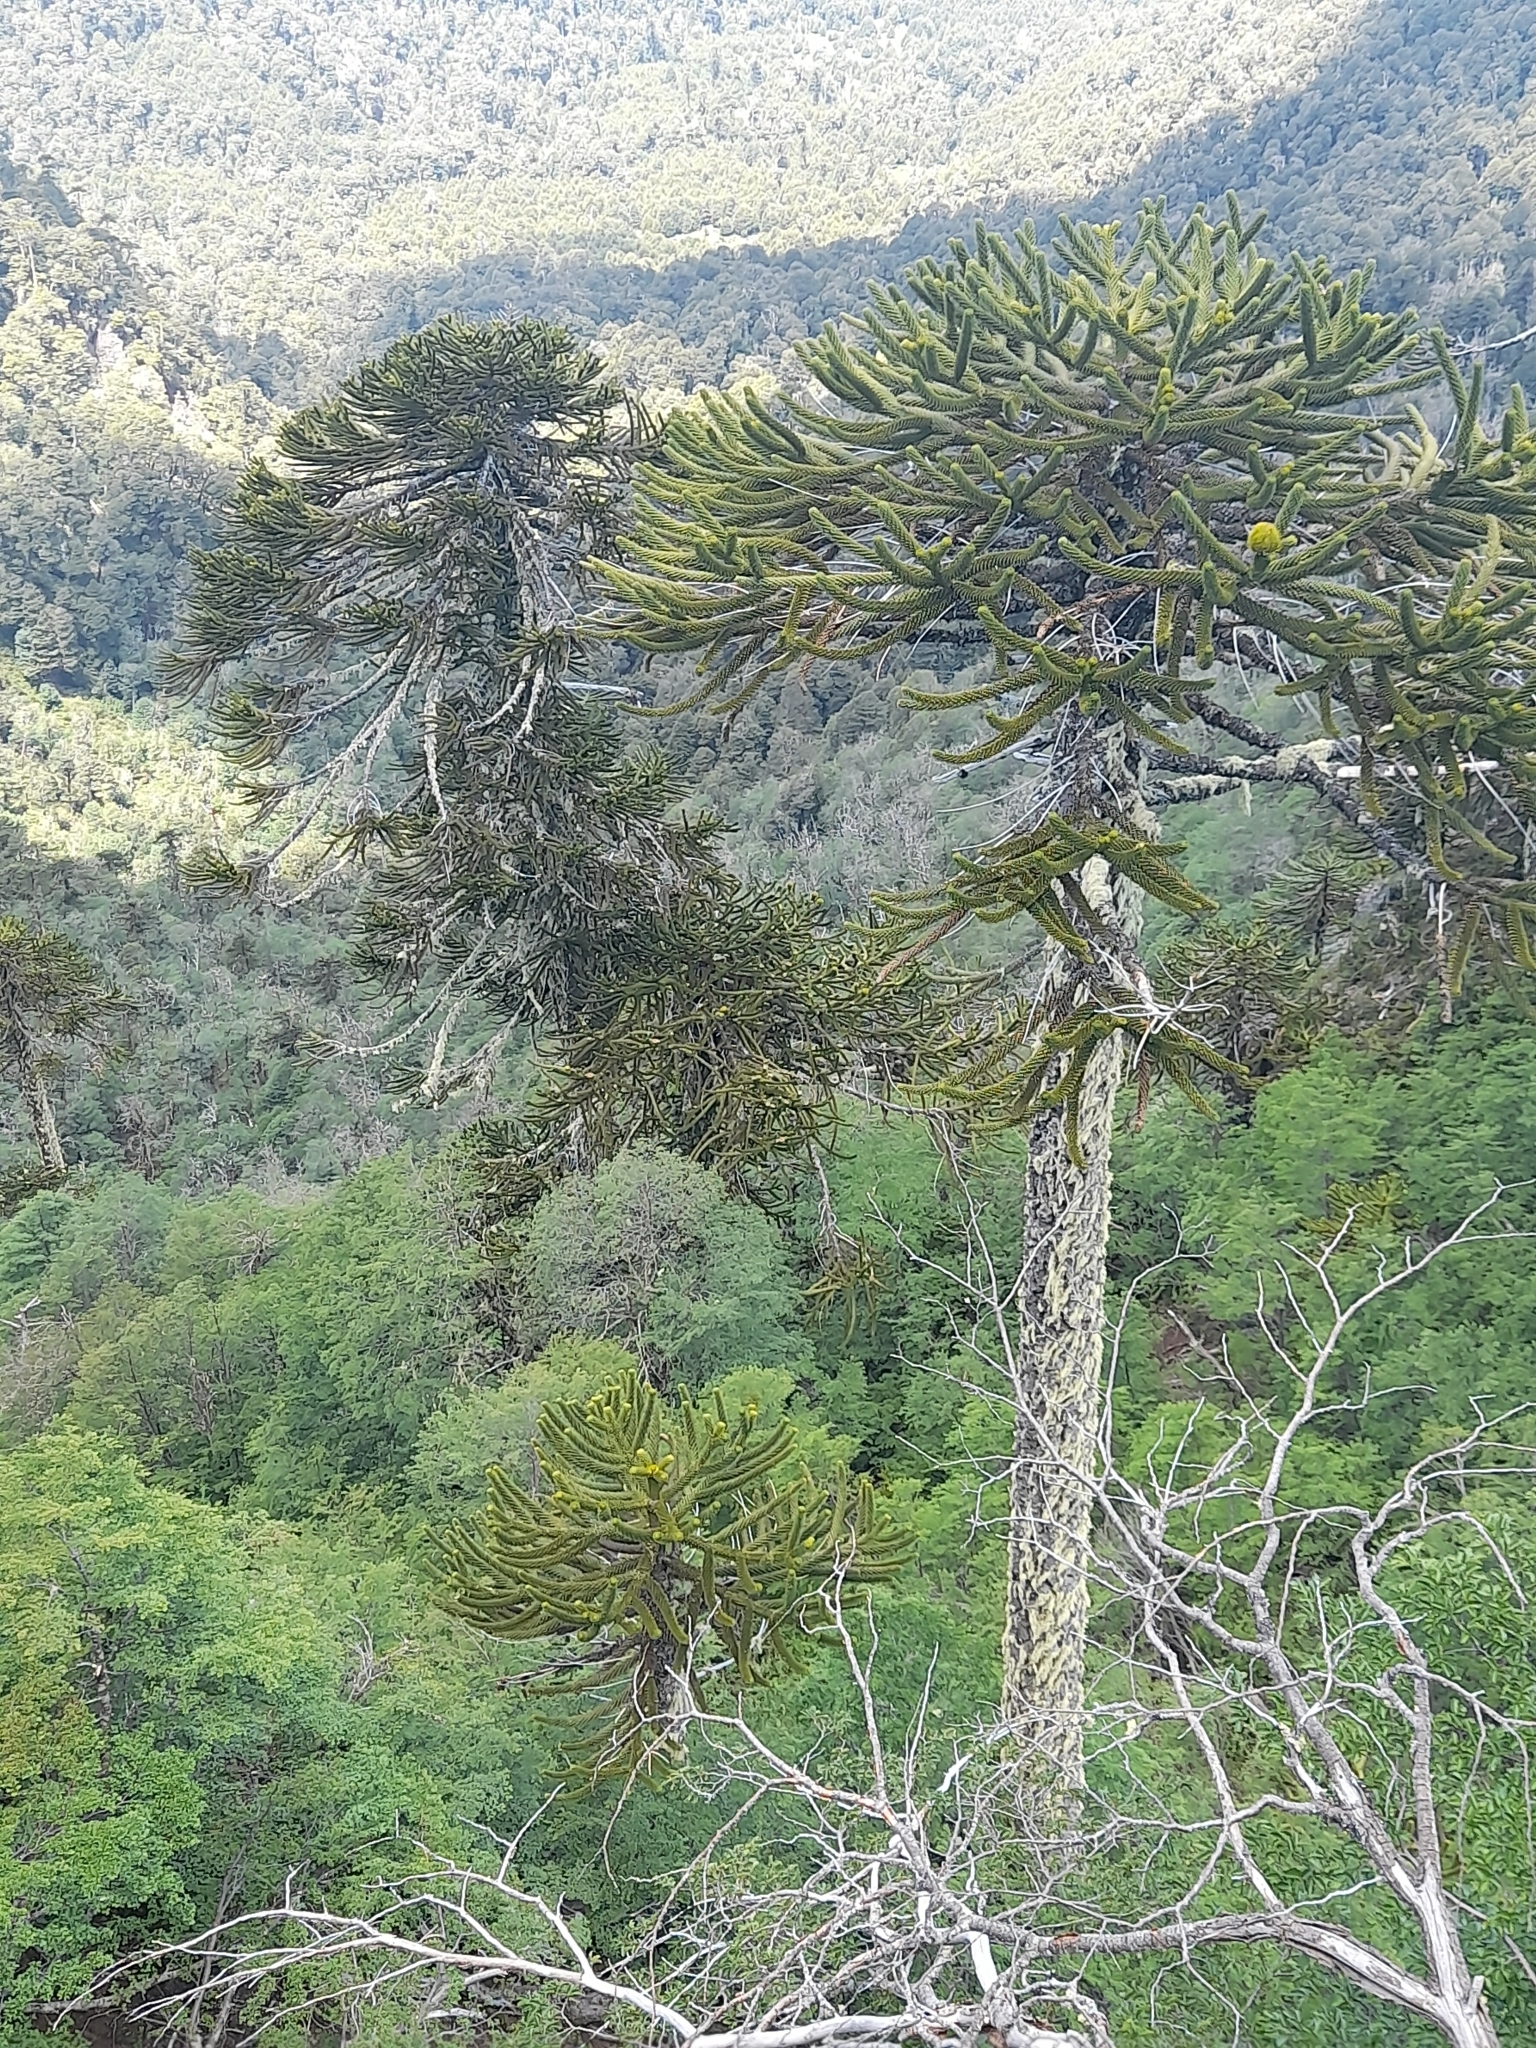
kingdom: Plantae
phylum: Tracheophyta
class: Pinopsida
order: Pinales
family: Araucariaceae
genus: Araucaria
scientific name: Araucaria araucana
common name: Monkey-puzzle
